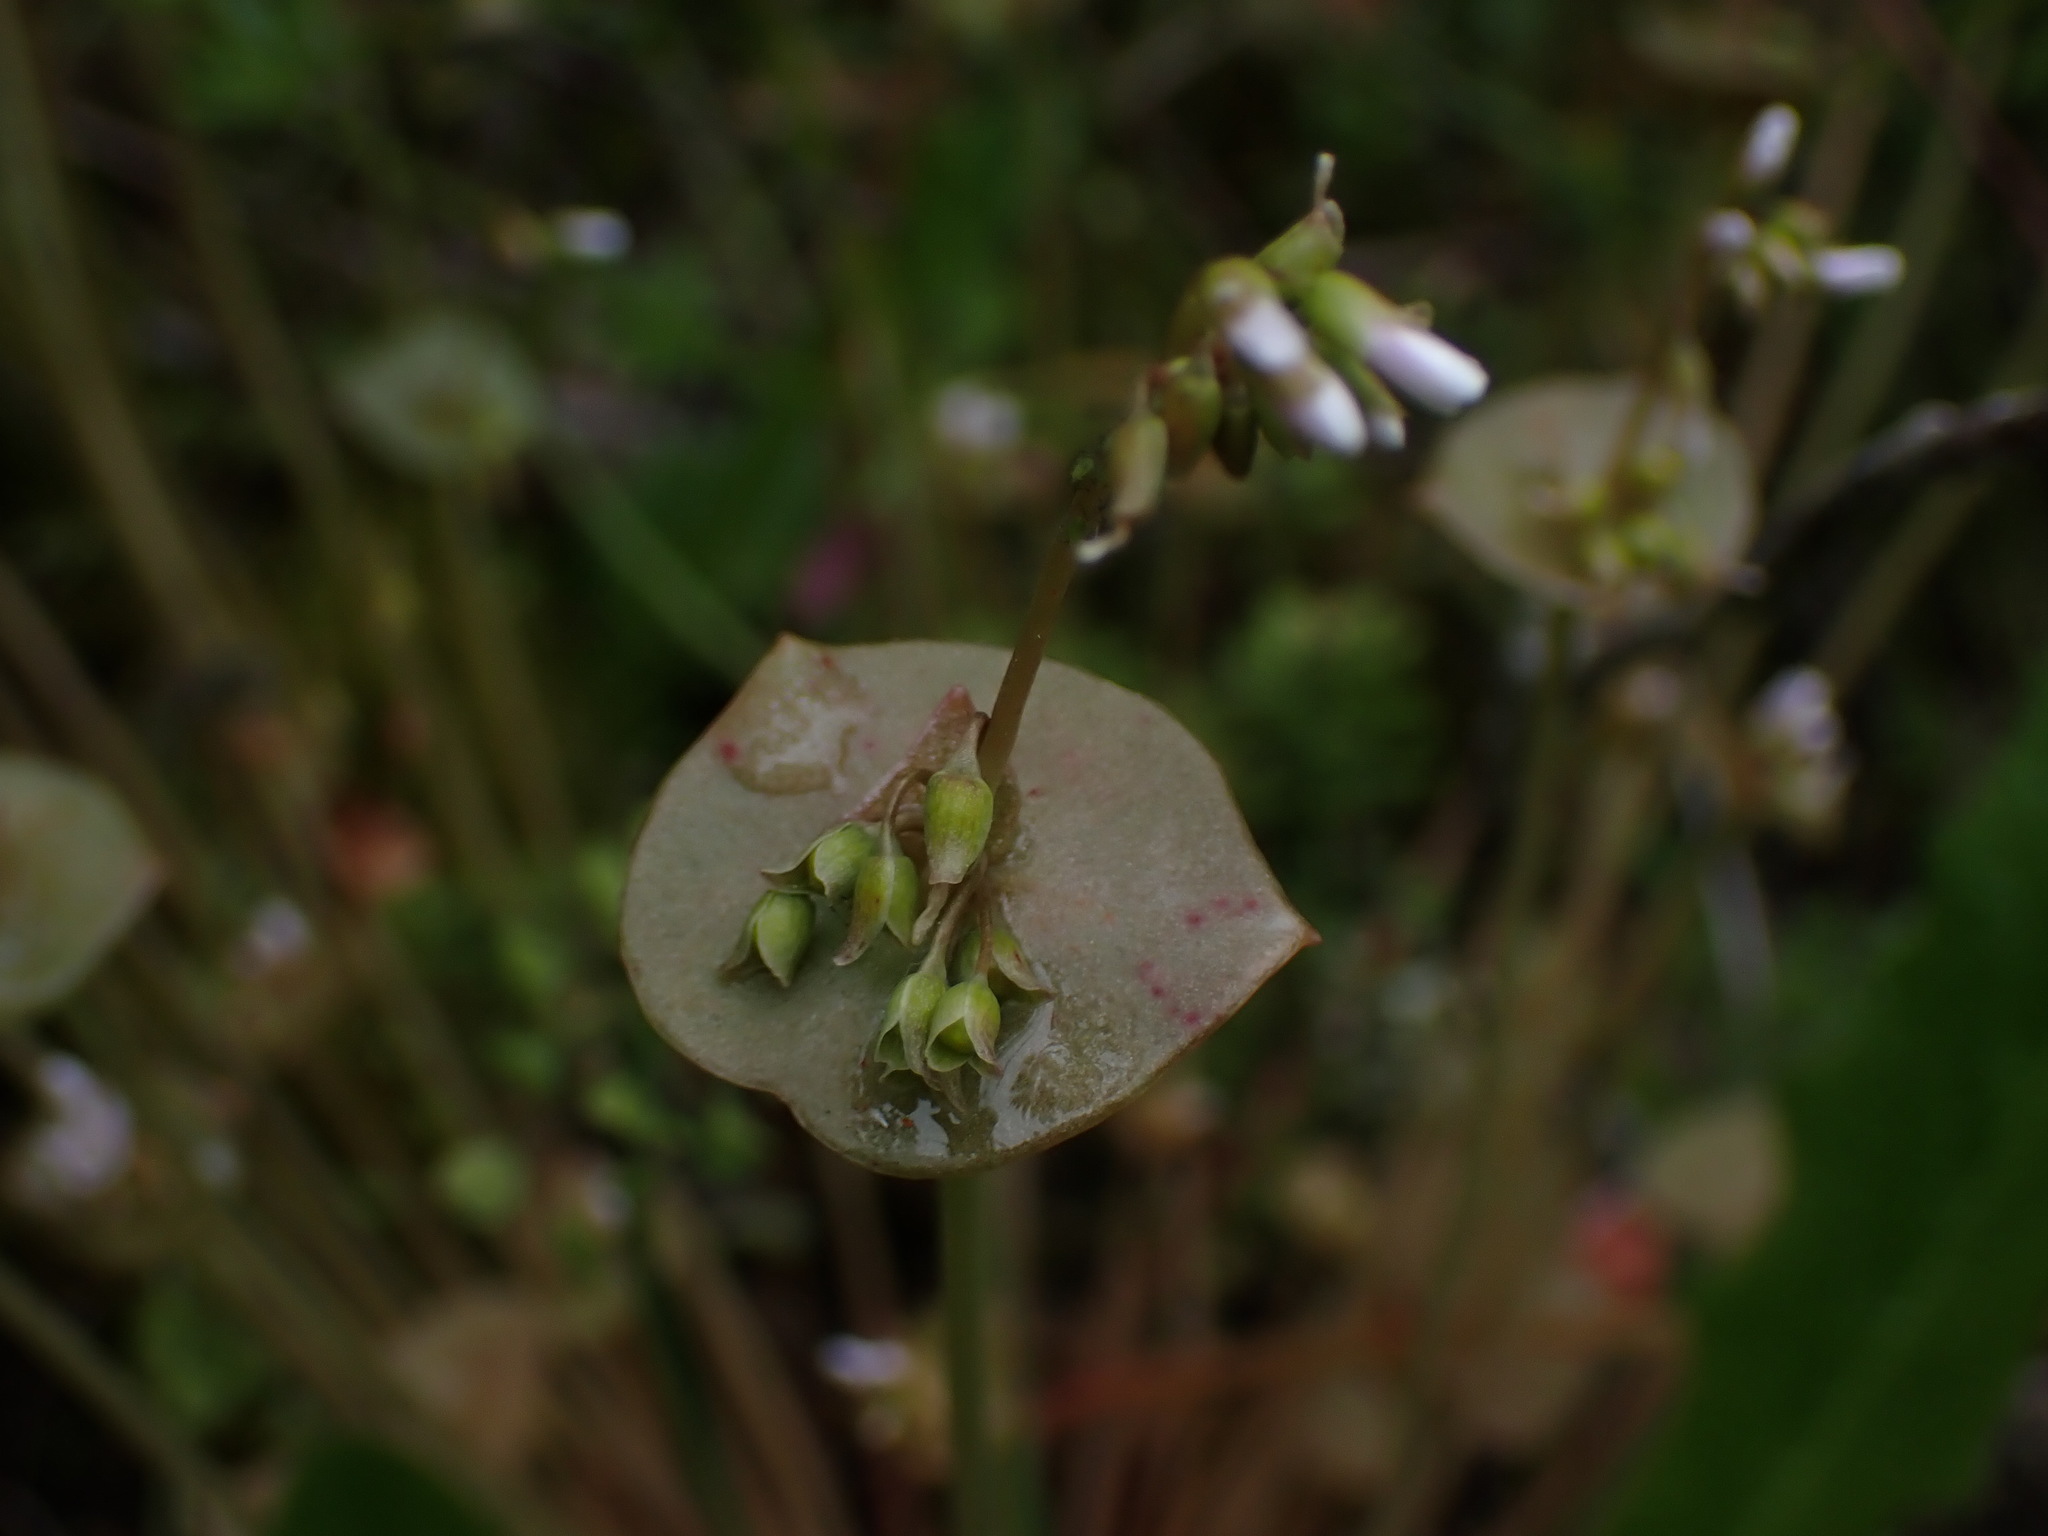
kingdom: Plantae
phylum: Tracheophyta
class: Magnoliopsida
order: Caryophyllales
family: Montiaceae
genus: Claytonia
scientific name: Claytonia perfoliata
